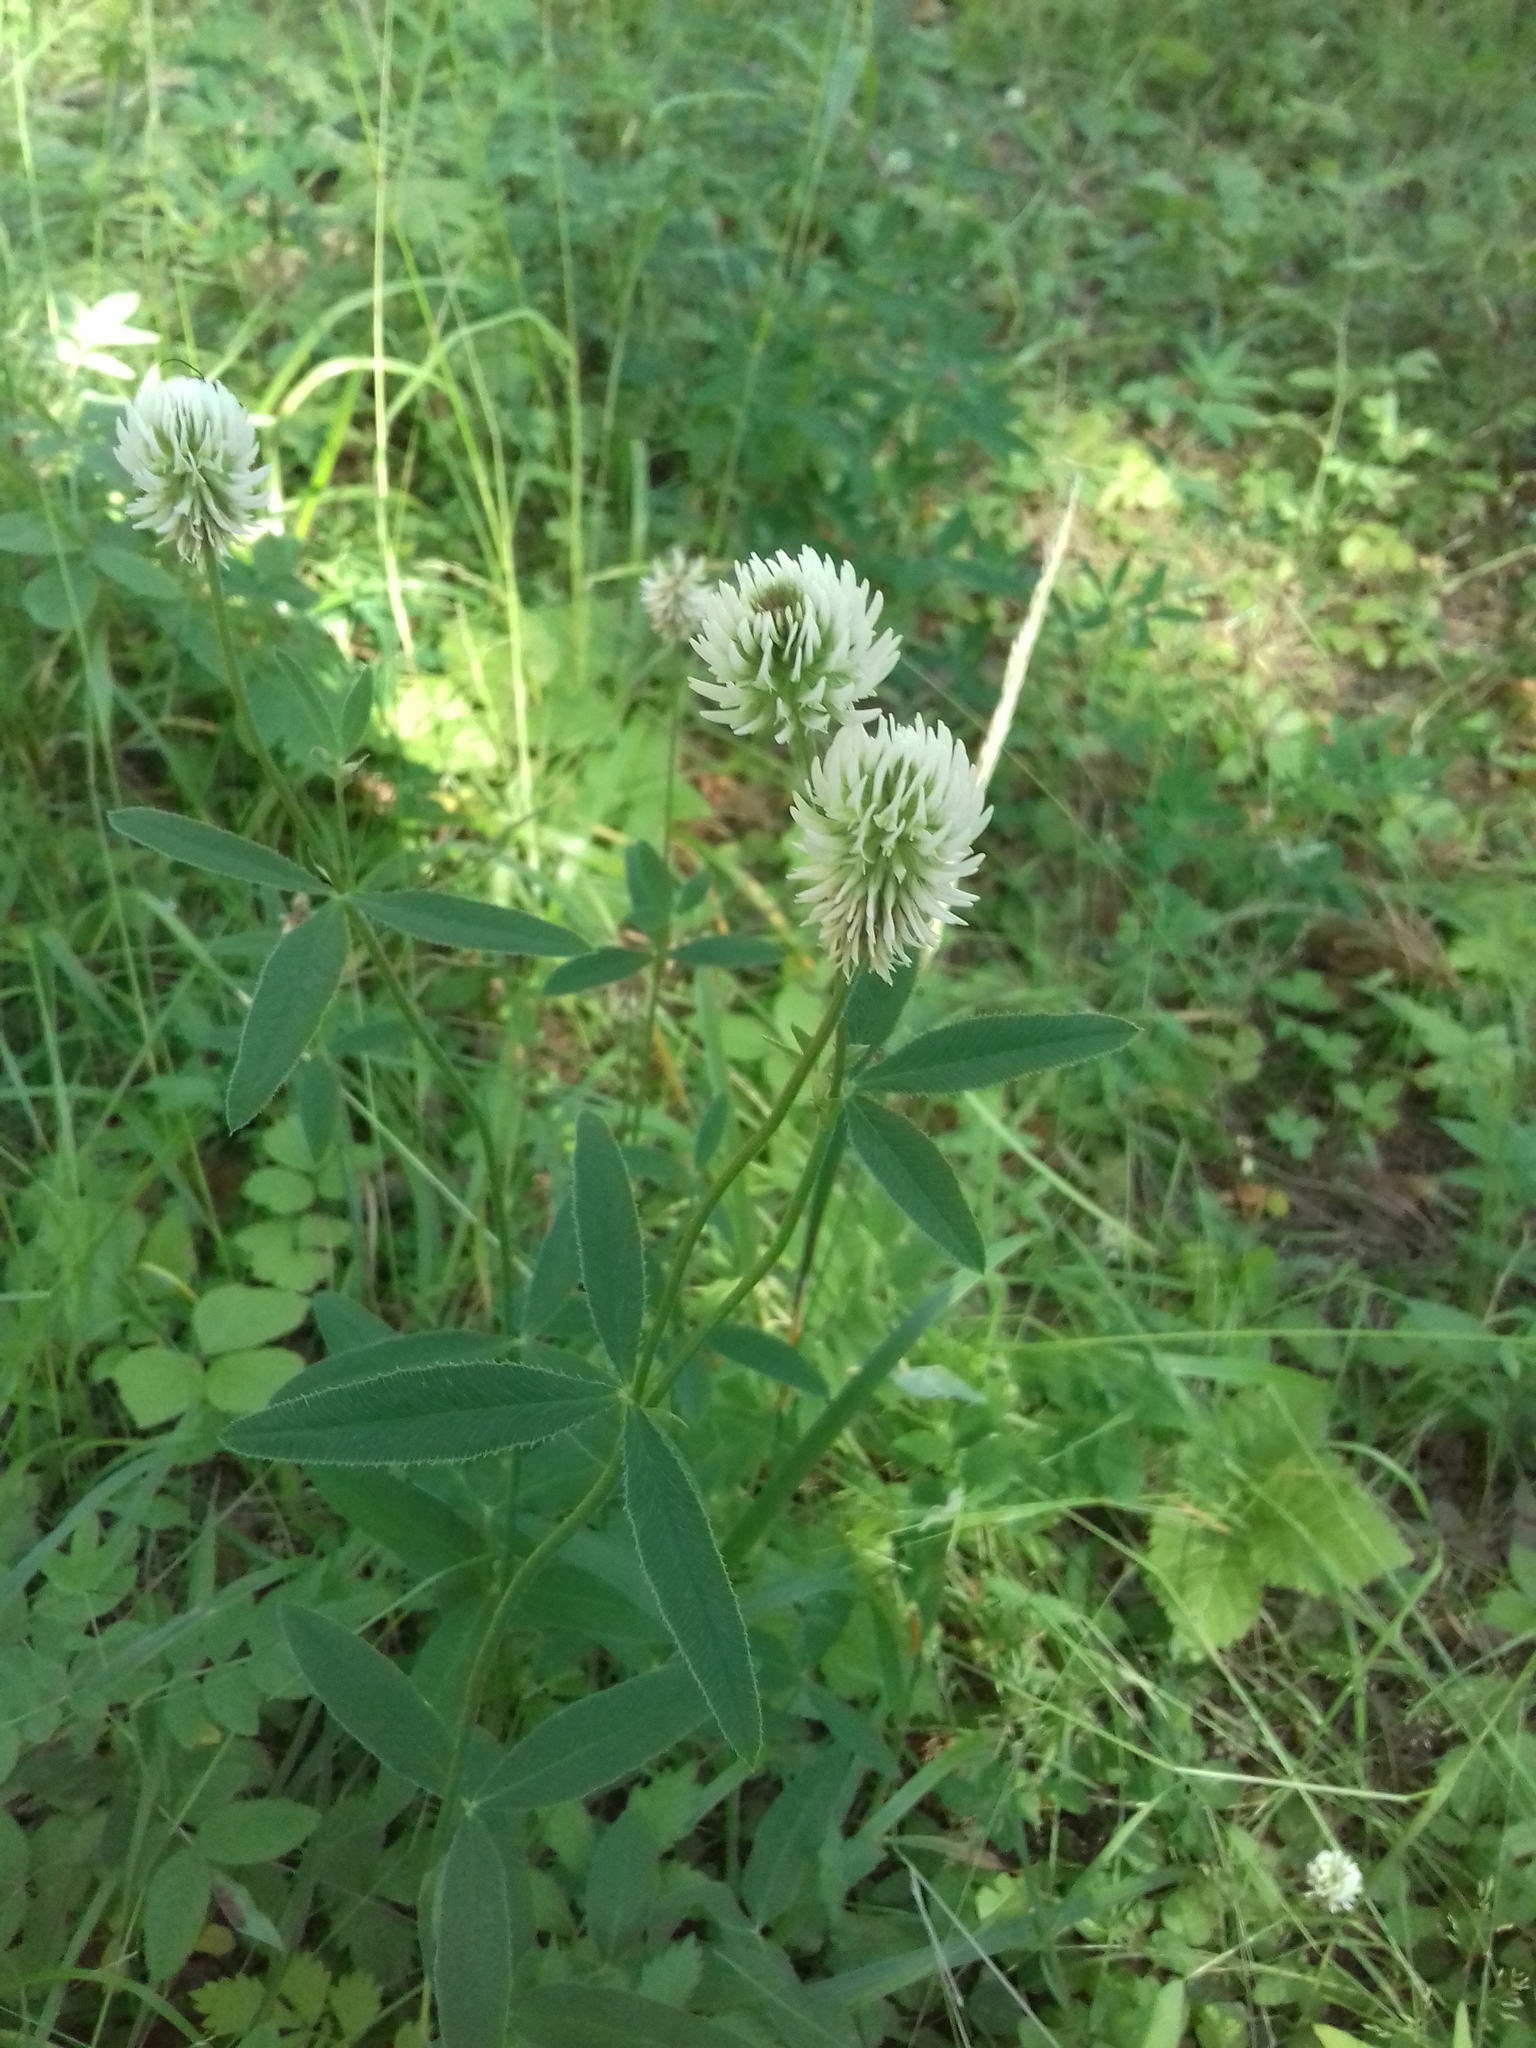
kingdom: Plantae
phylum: Tracheophyta
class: Magnoliopsida
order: Fabales
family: Fabaceae
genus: Trifolium
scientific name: Trifolium montanum
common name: Mountain clover
